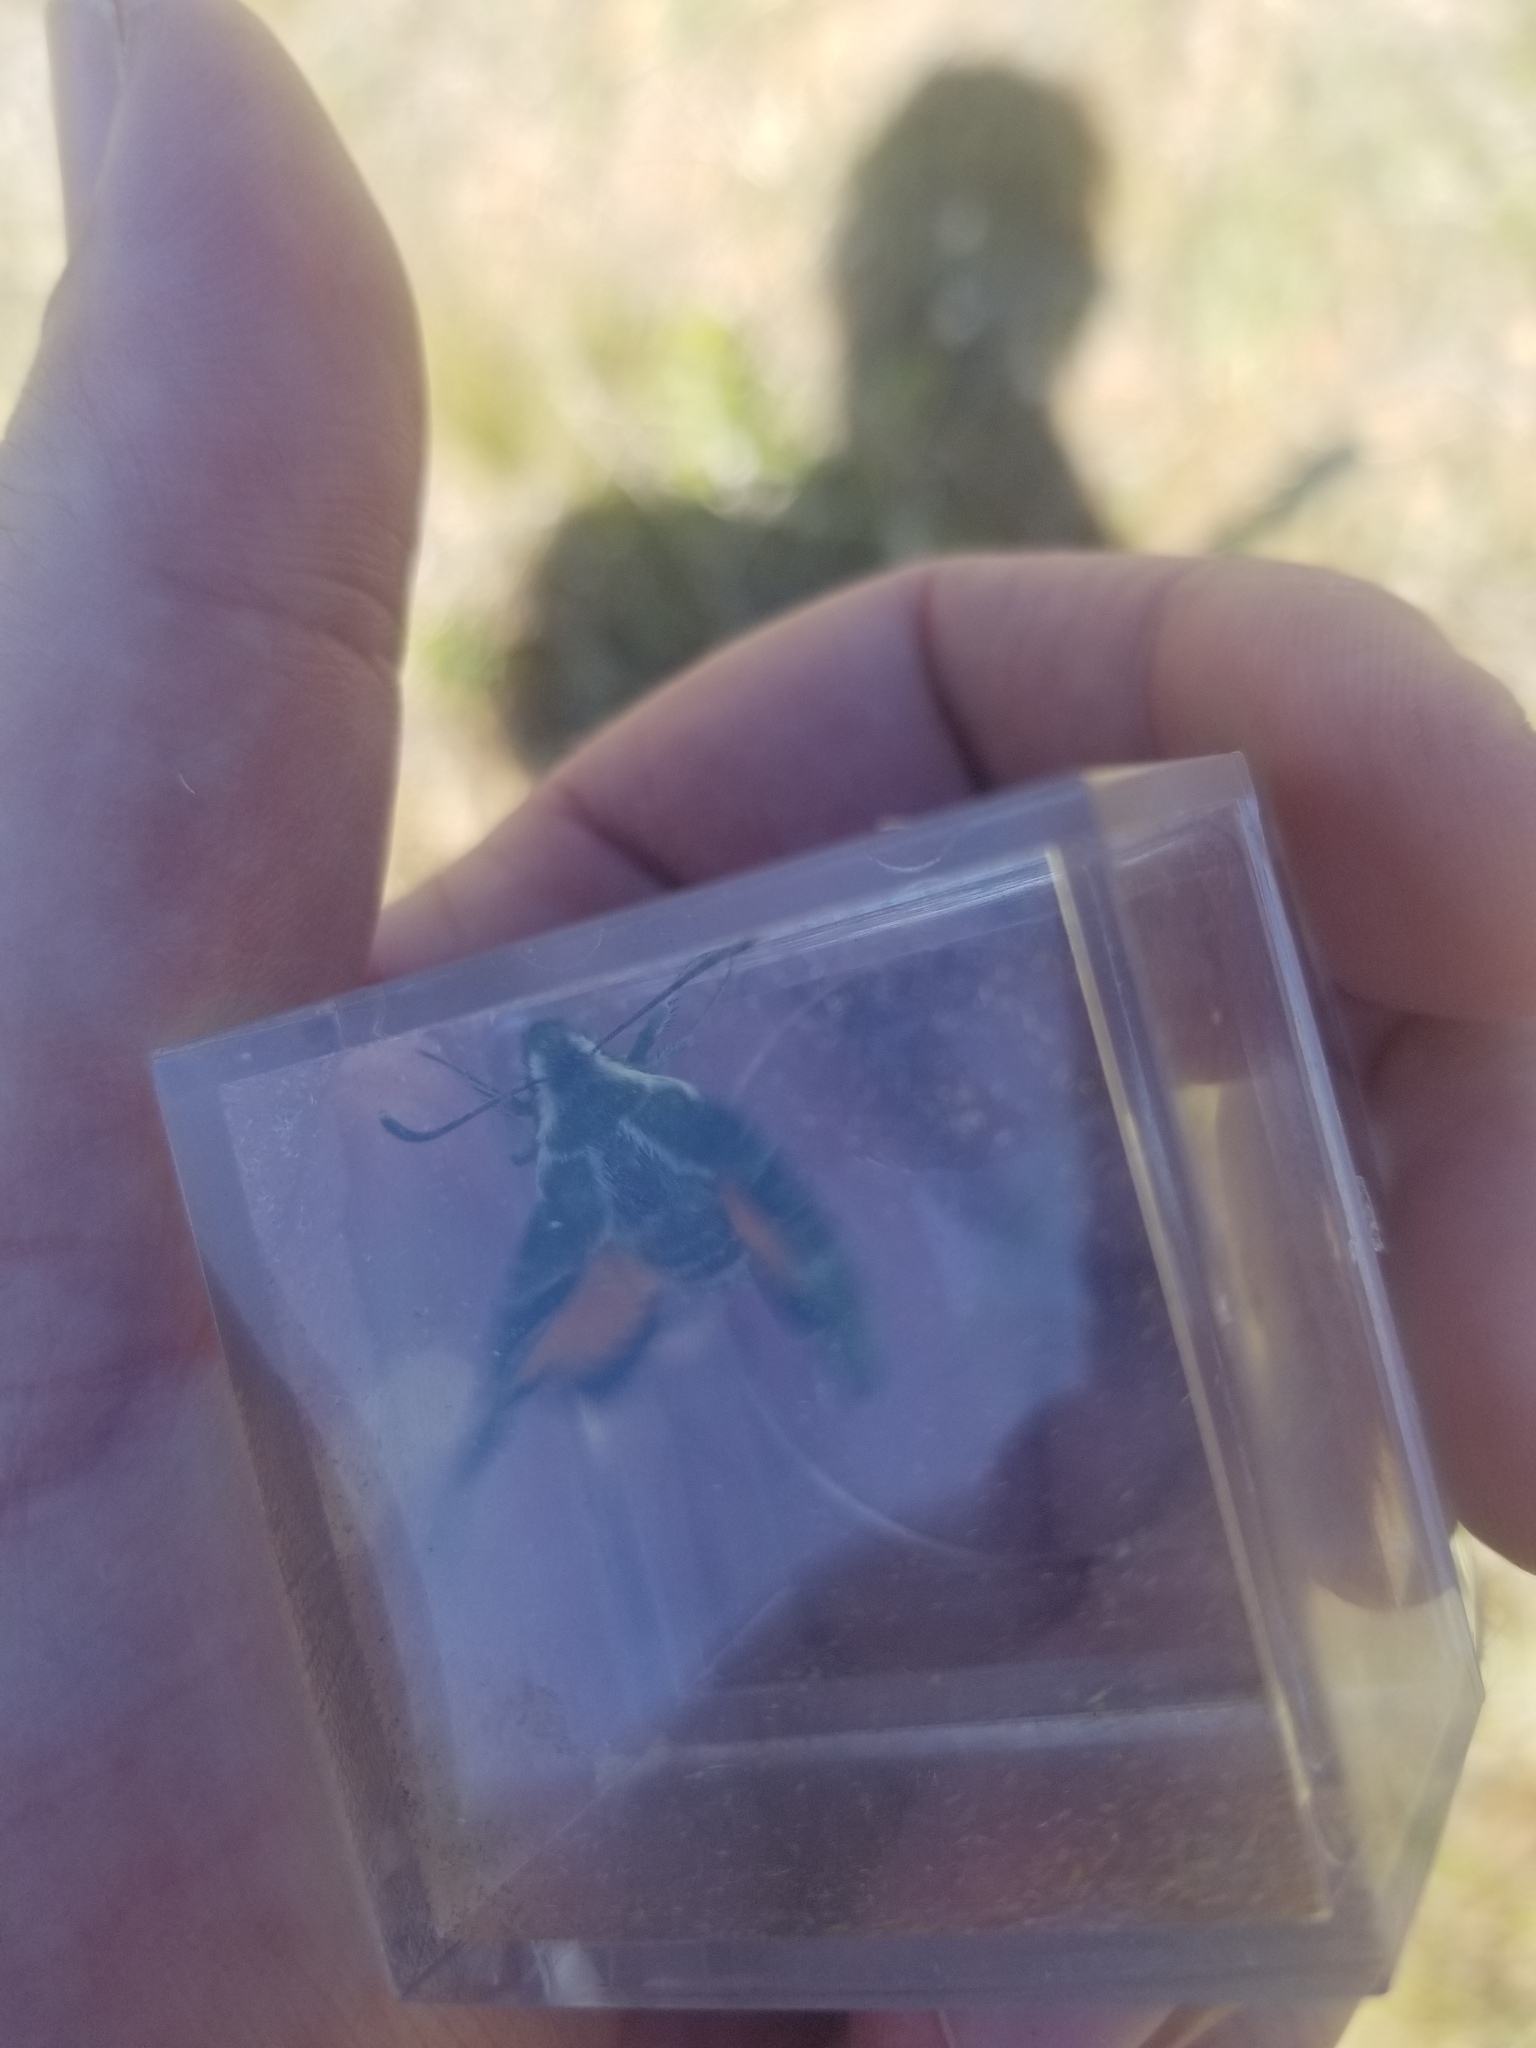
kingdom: Animalia
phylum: Arthropoda
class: Insecta
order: Lepidoptera
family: Sphingidae
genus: Proserpinus
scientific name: Proserpinus clarkiae
